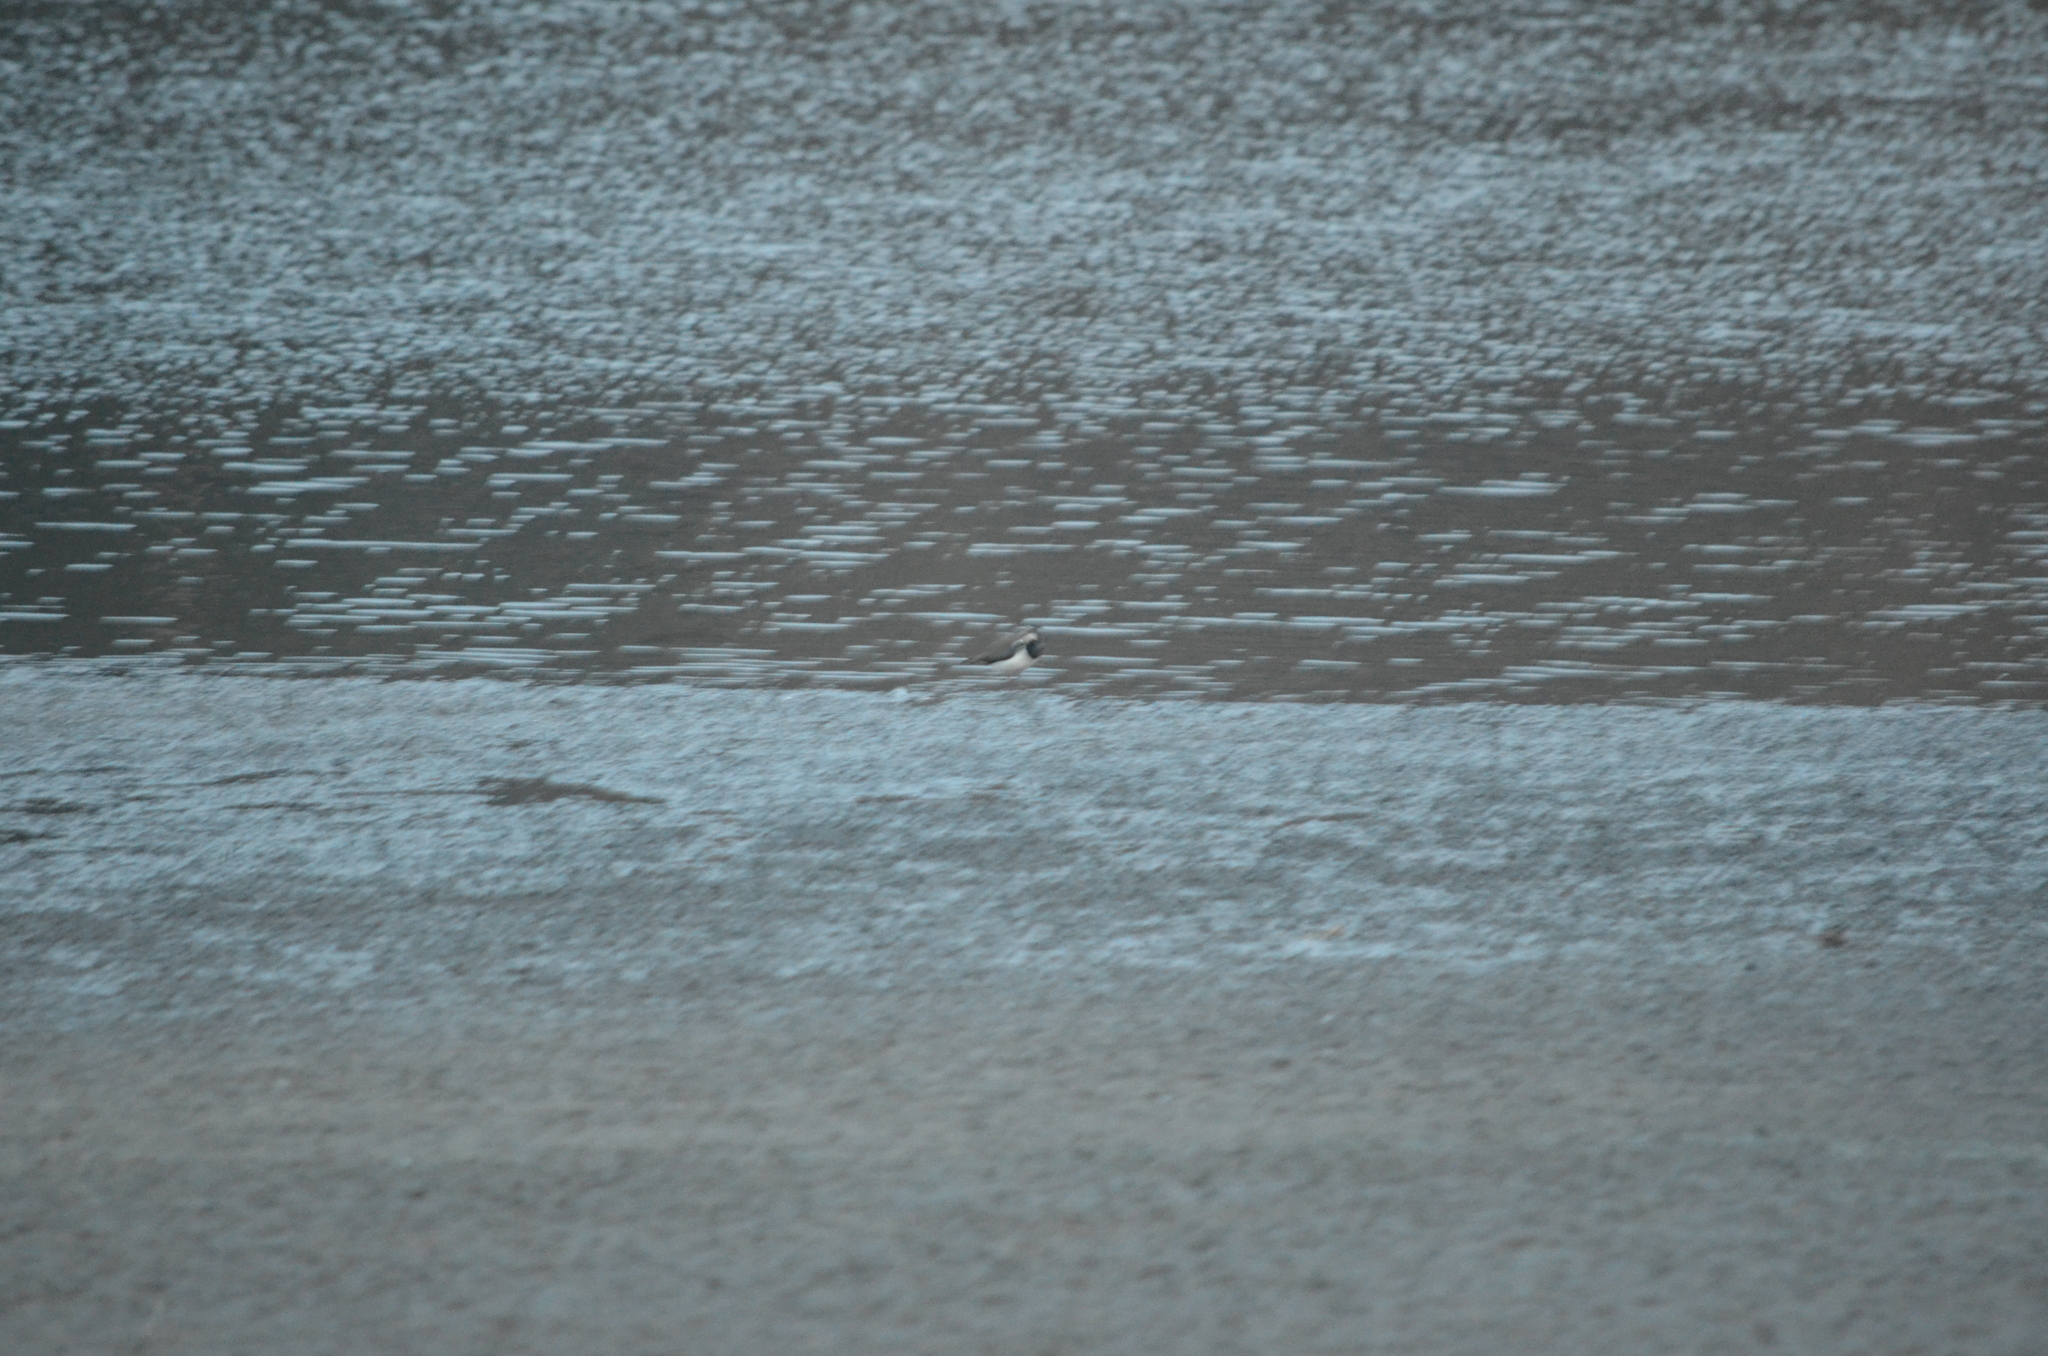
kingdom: Animalia
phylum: Chordata
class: Aves
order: Charadriiformes
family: Charadriidae
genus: Vanellus
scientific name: Vanellus vanellus
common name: Northern lapwing
